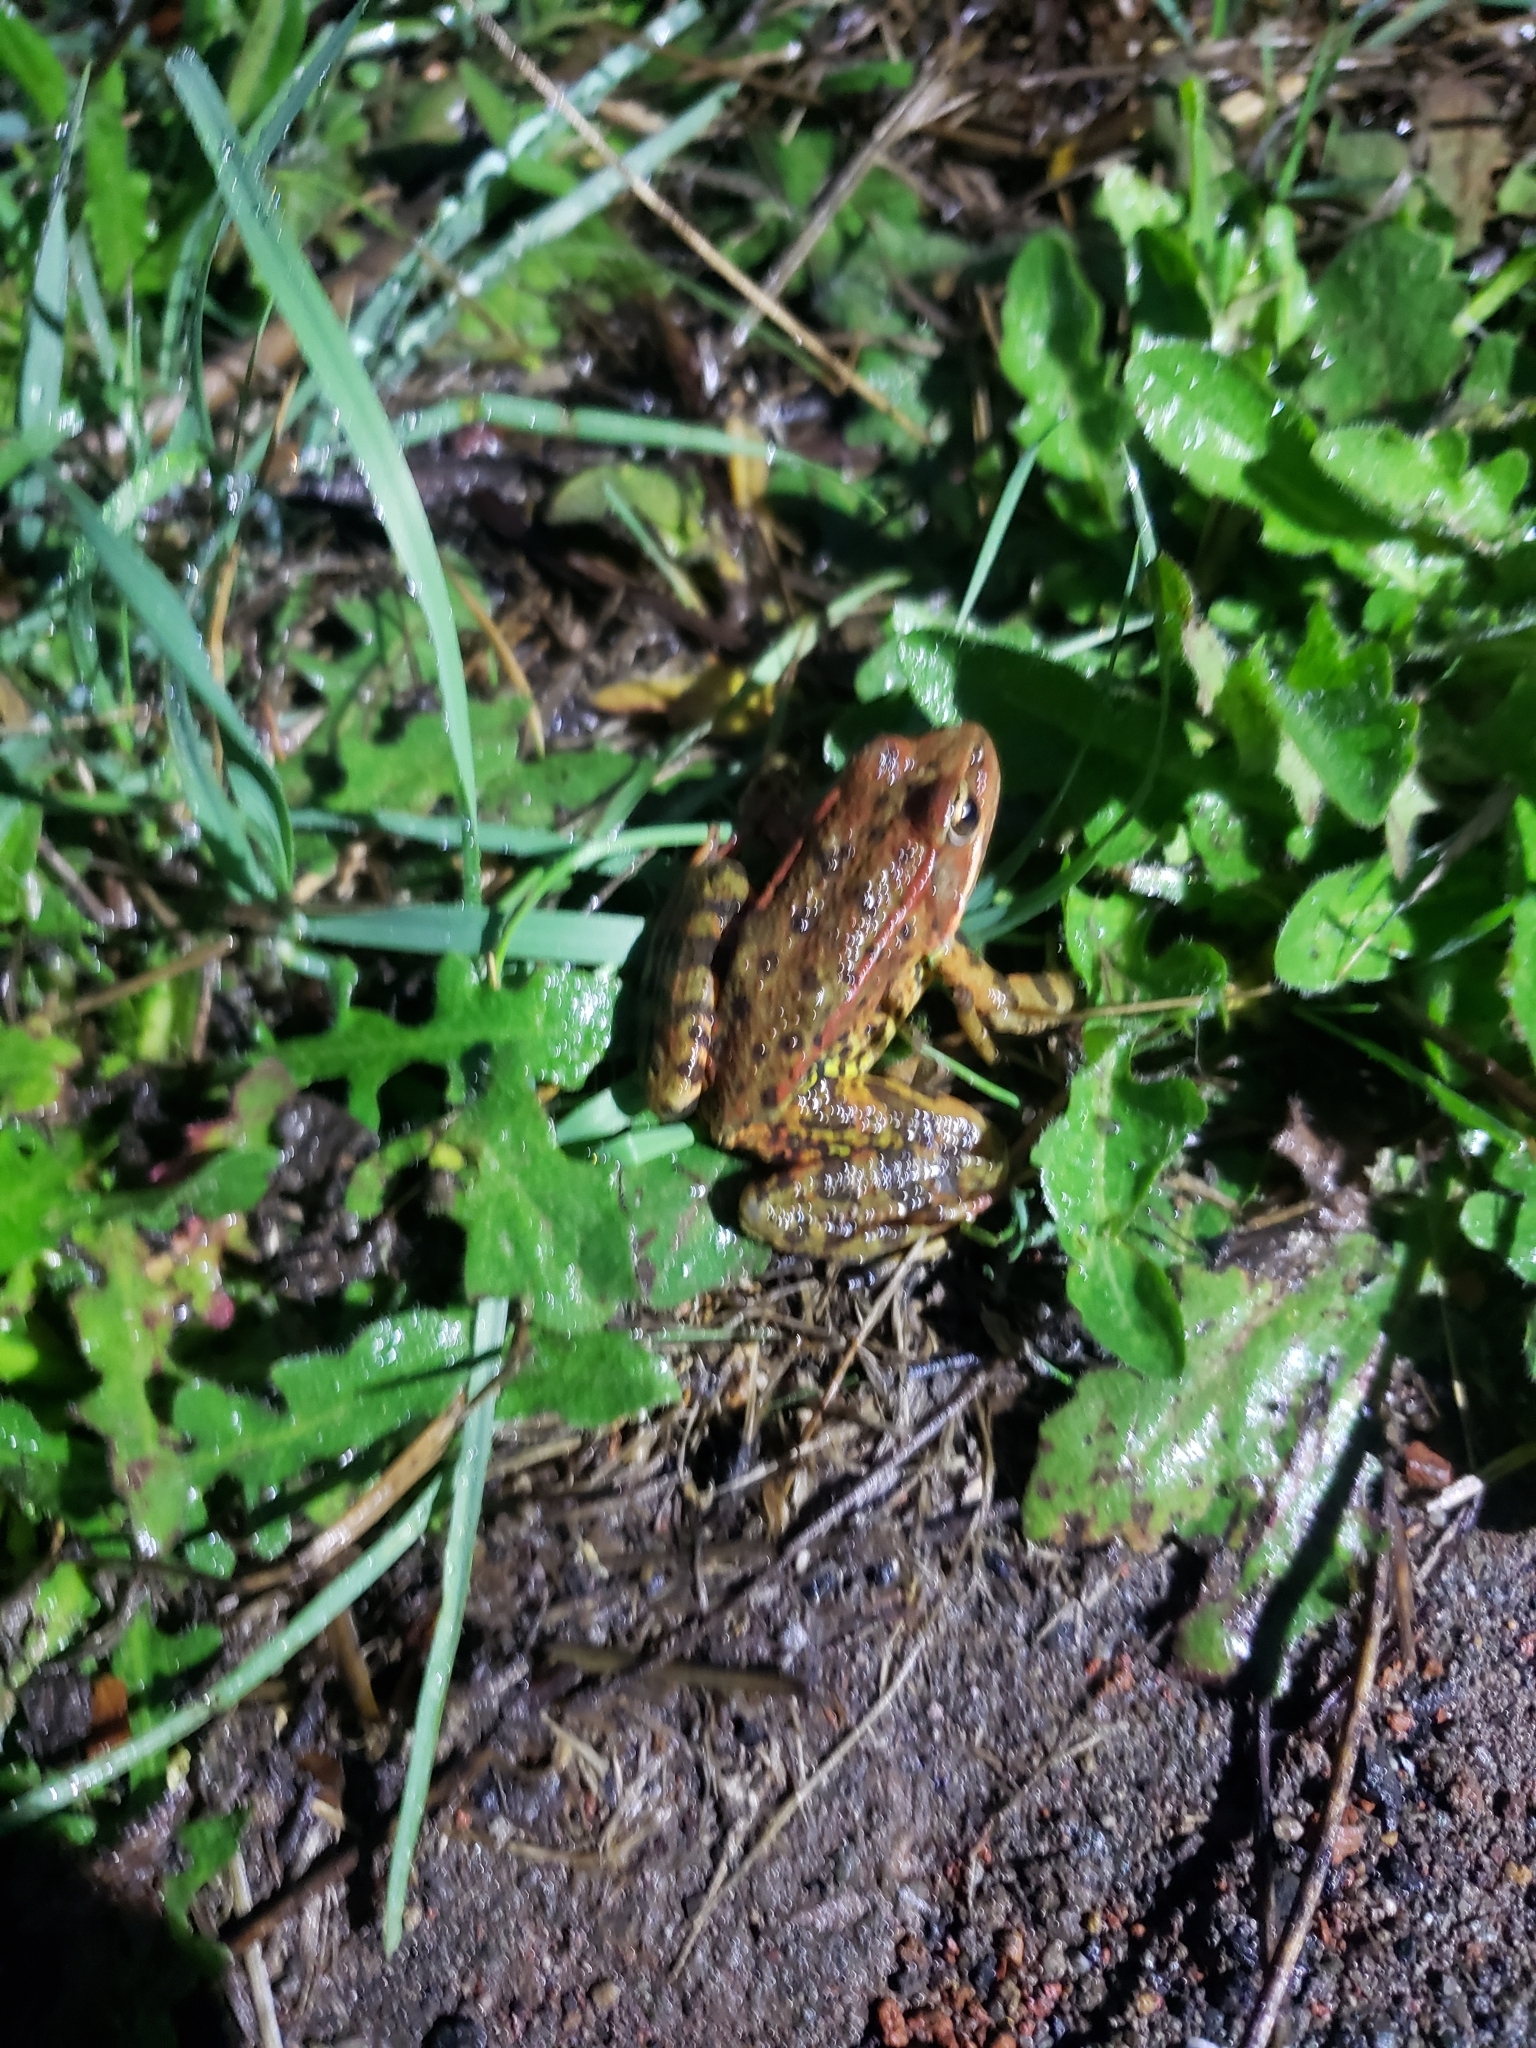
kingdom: Animalia
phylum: Chordata
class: Amphibia
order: Anura
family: Ranidae
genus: Rana
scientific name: Rana draytonii
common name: California red-legged frog
